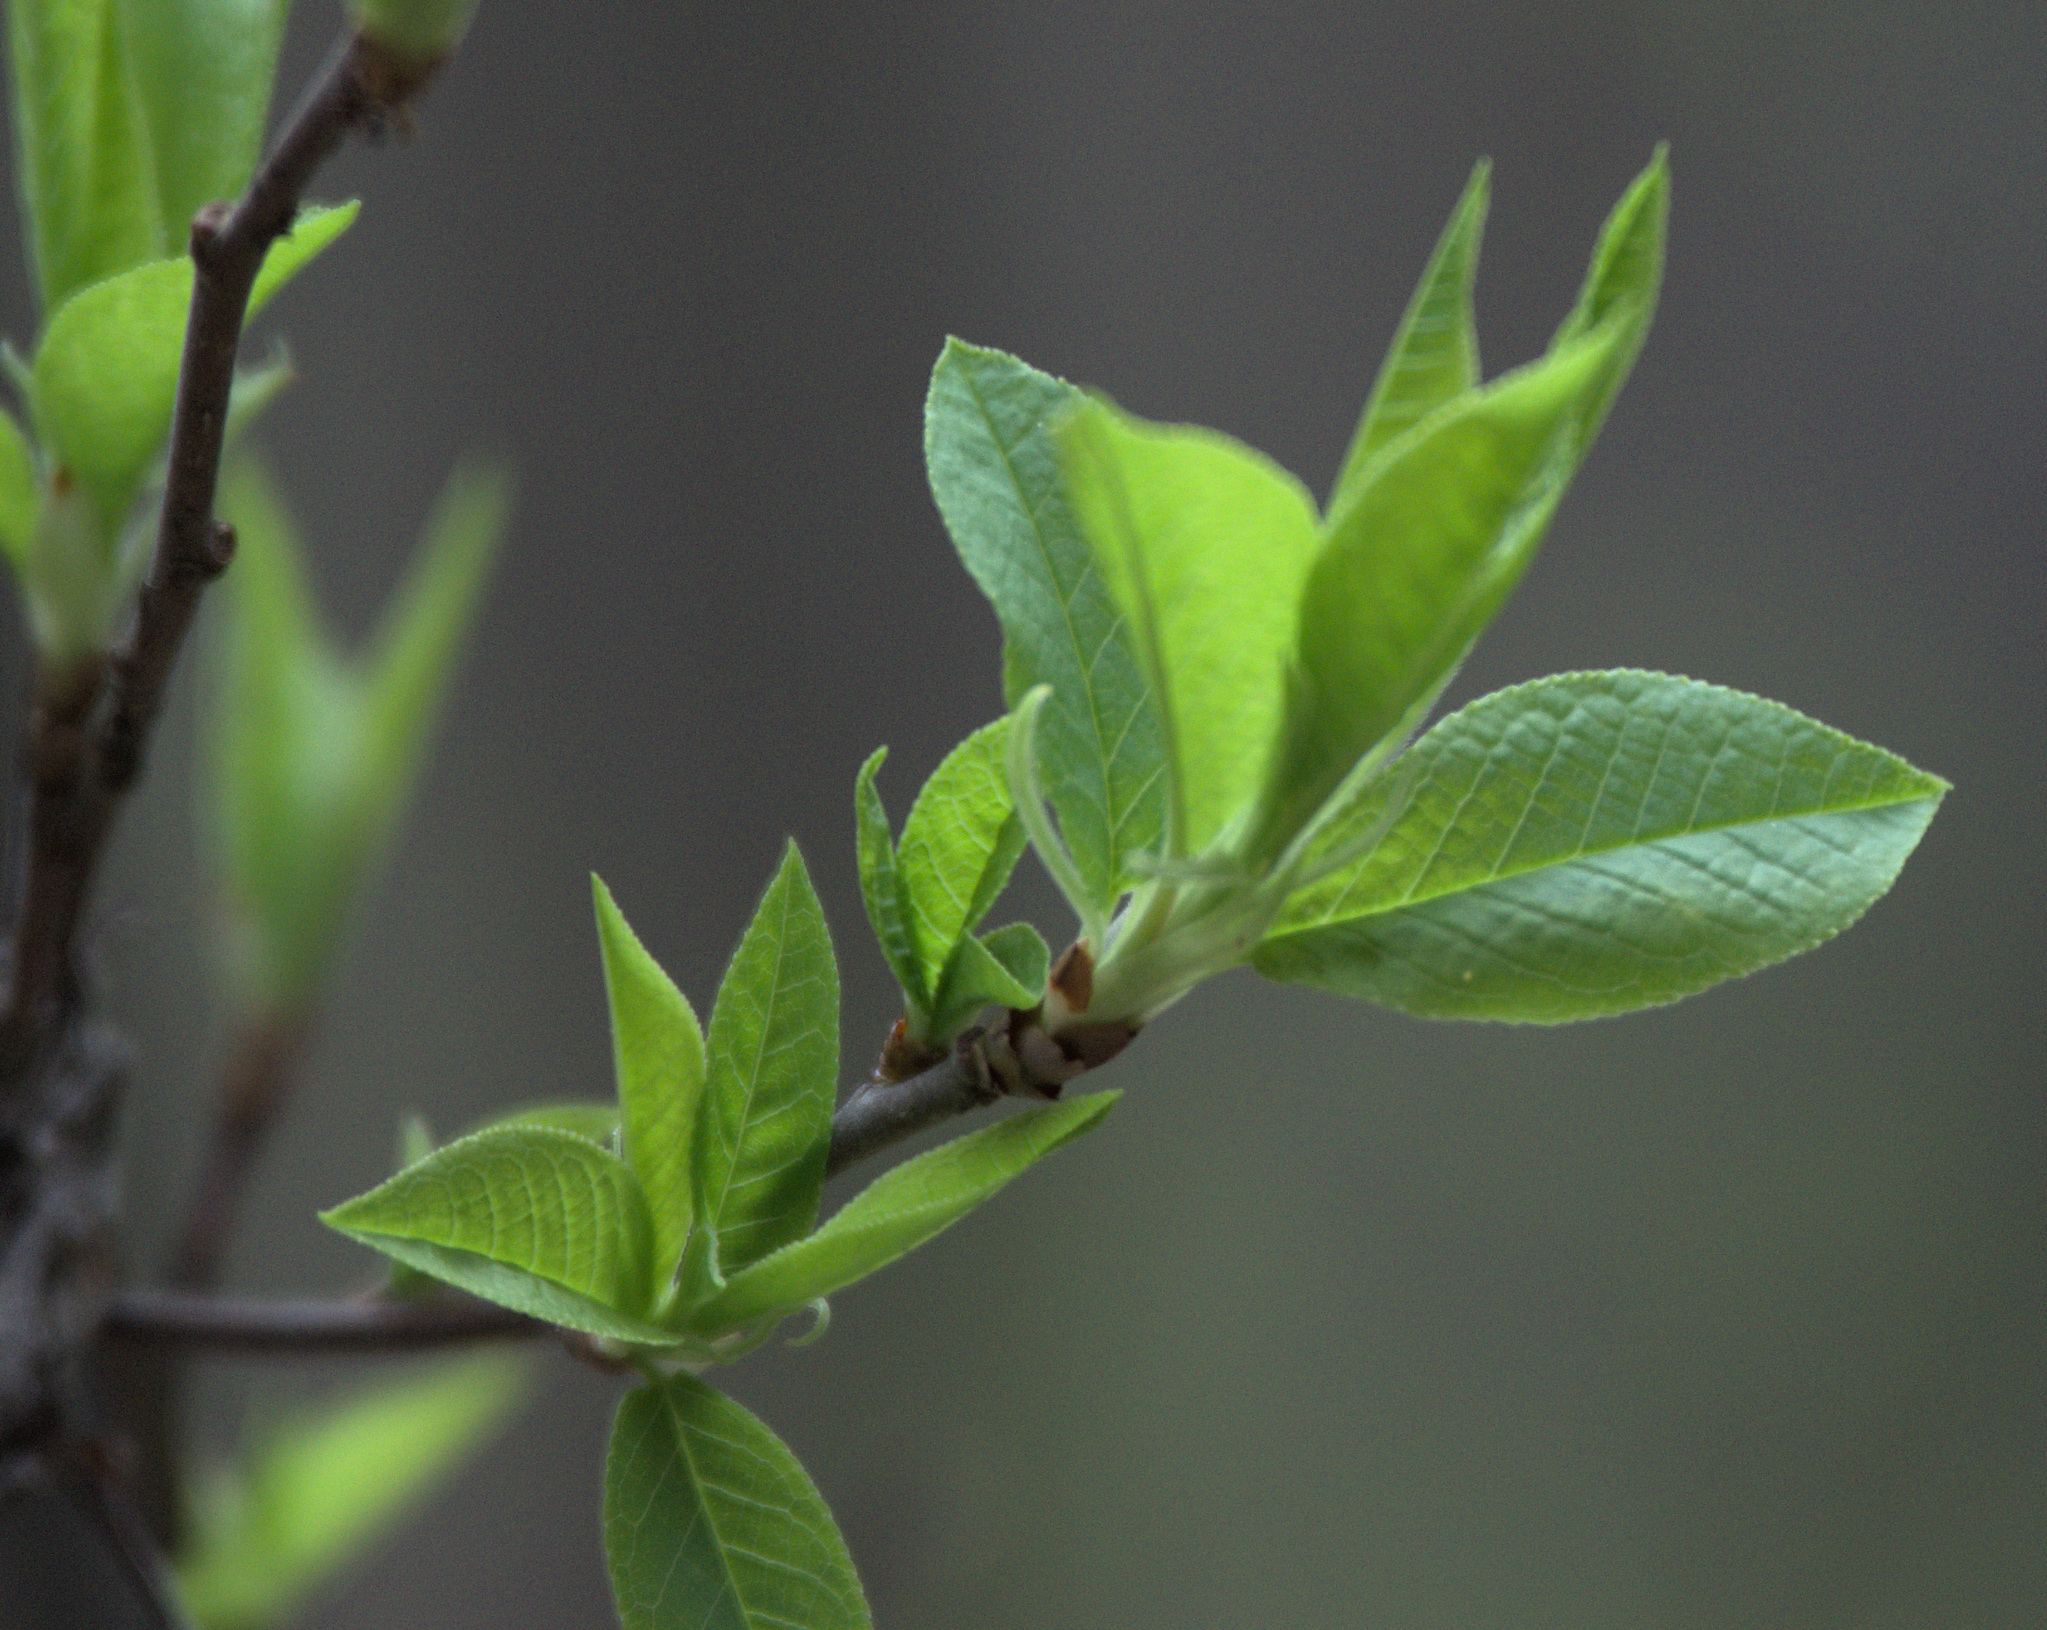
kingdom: Plantae
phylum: Tracheophyta
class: Magnoliopsida
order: Rosales
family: Rosaceae
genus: Prunus
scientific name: Prunus padus
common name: Bird cherry
